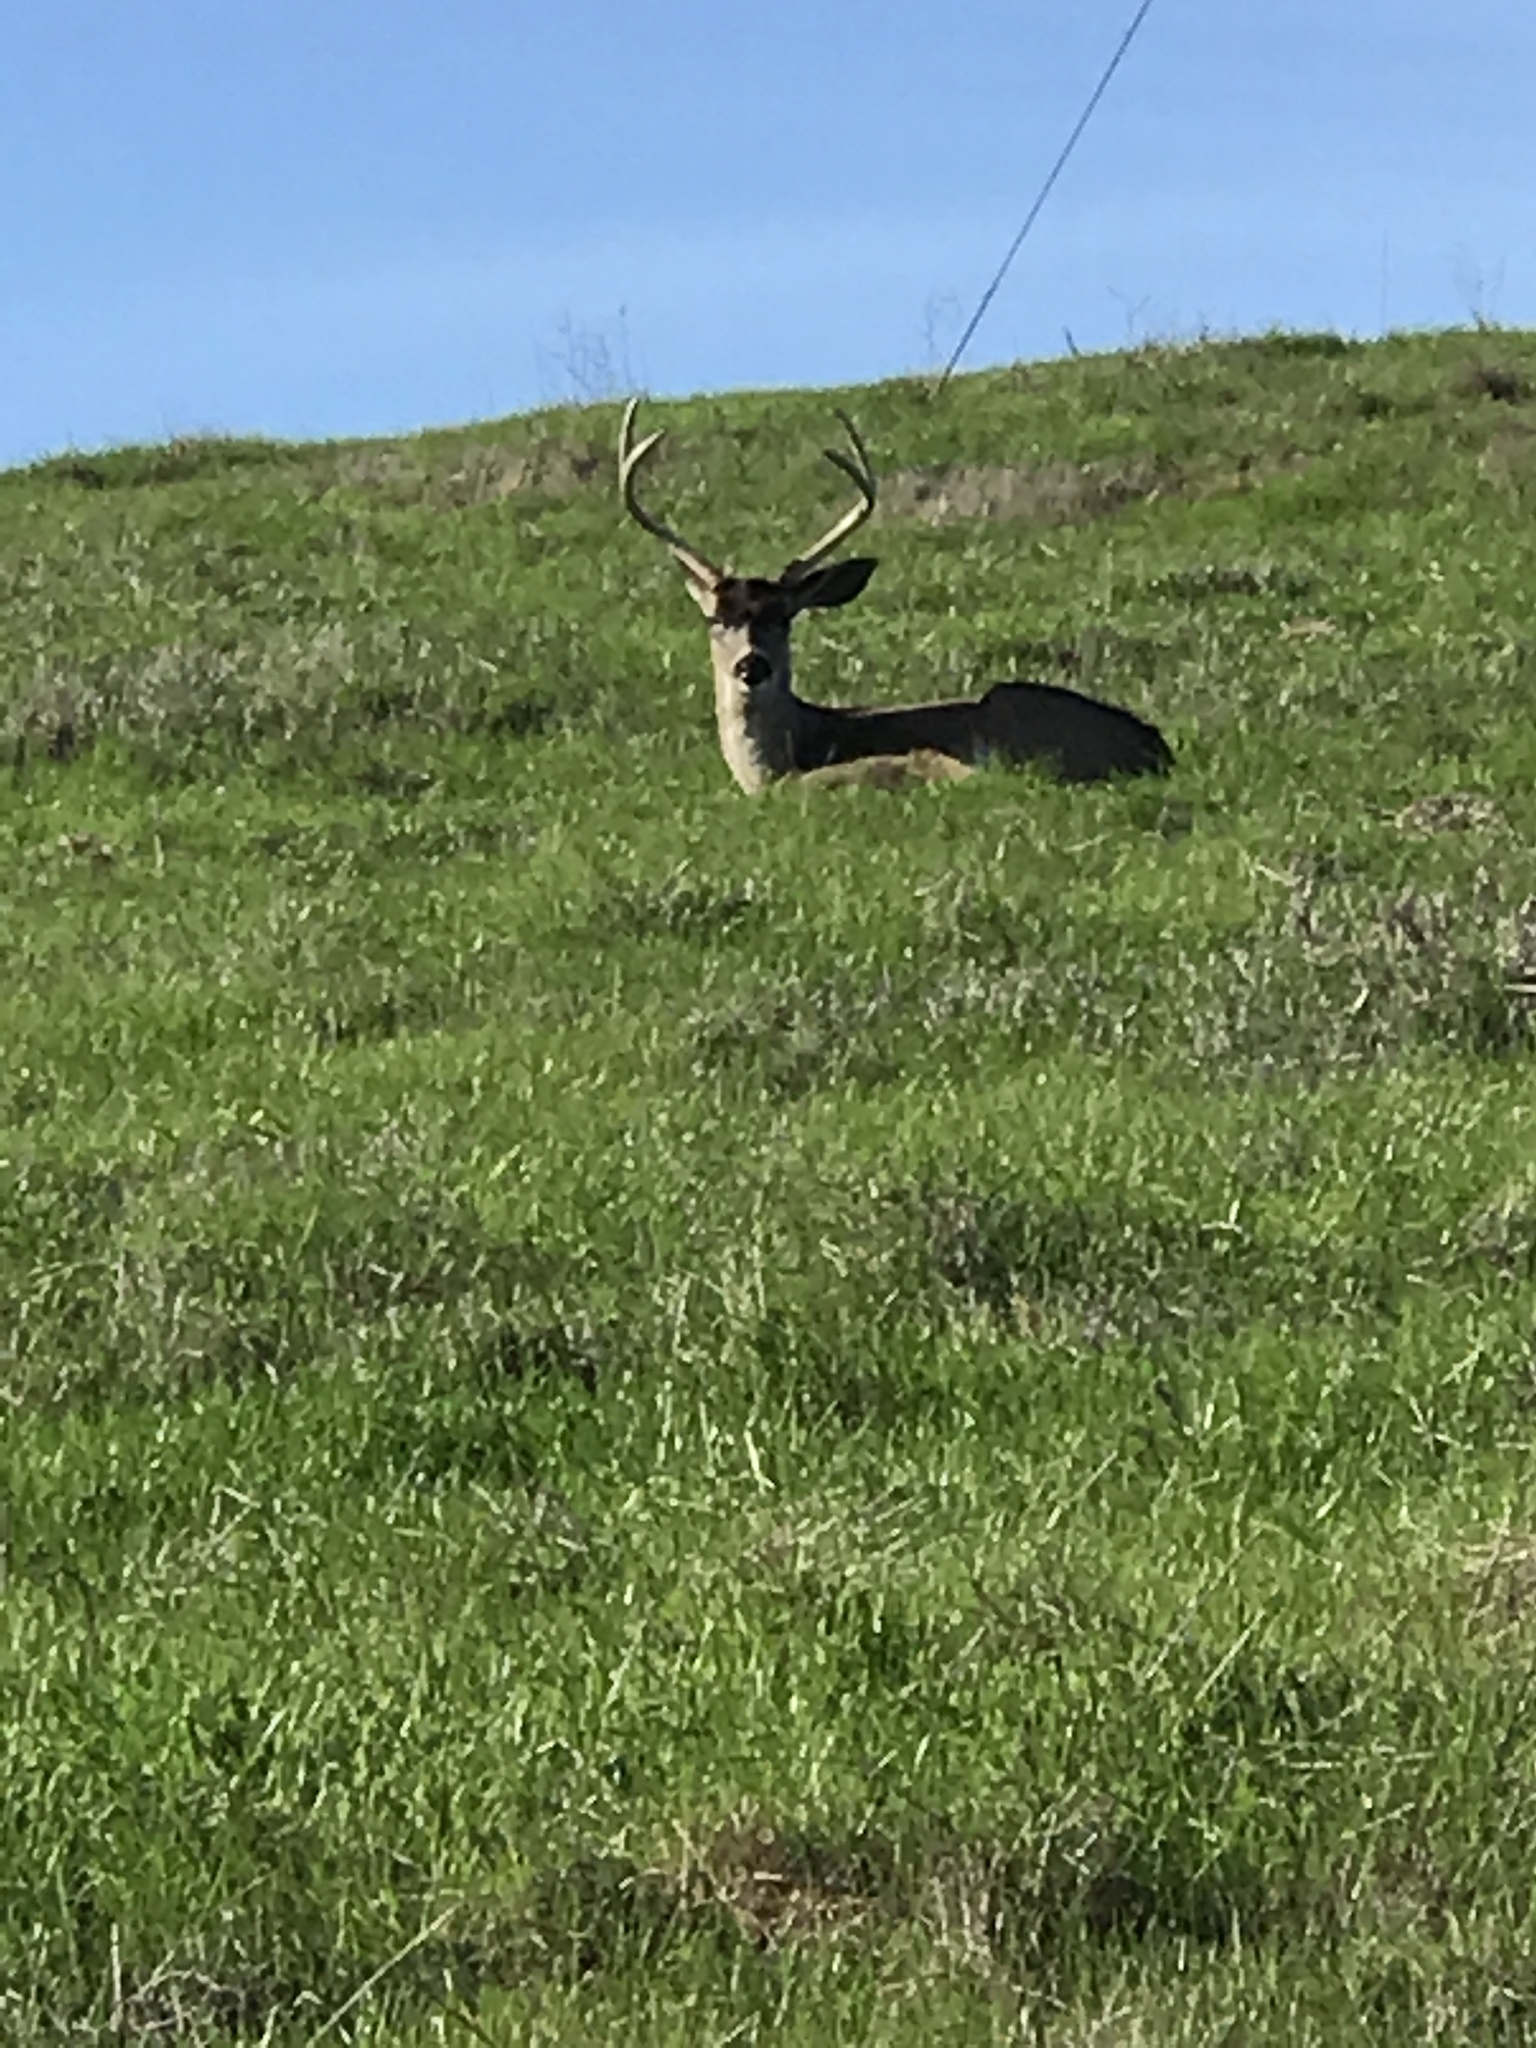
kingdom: Animalia
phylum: Chordata
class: Mammalia
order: Artiodactyla
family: Cervidae
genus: Odocoileus
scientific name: Odocoileus hemionus
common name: Mule deer
